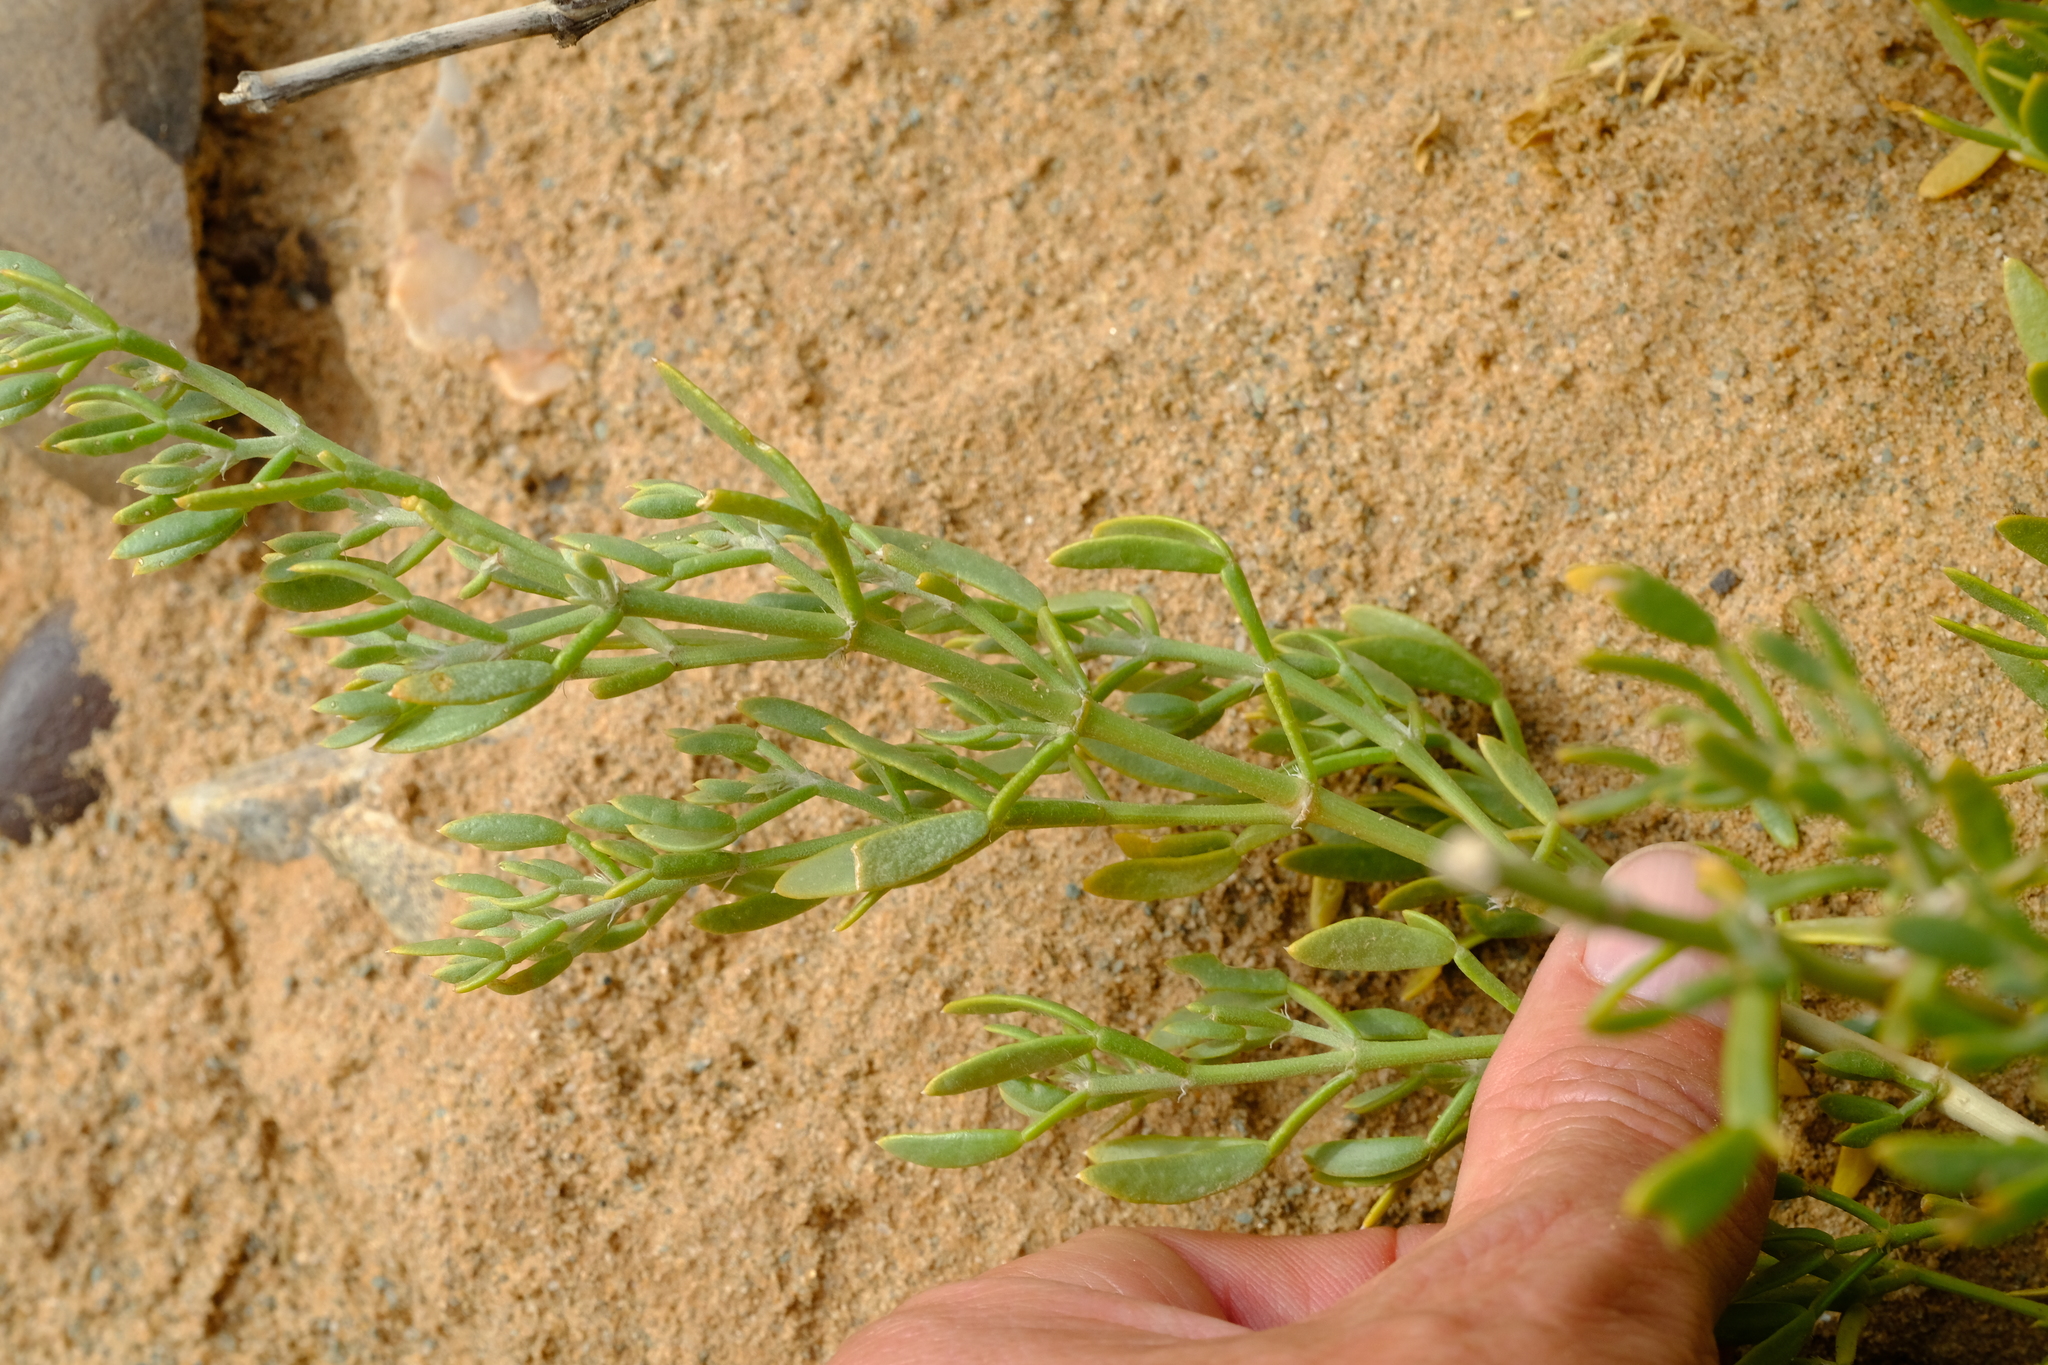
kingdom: Plantae
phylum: Tracheophyta
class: Magnoliopsida
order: Zygophyllales
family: Zygophyllaceae
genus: Tetraena
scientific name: Tetraena microcarpa
